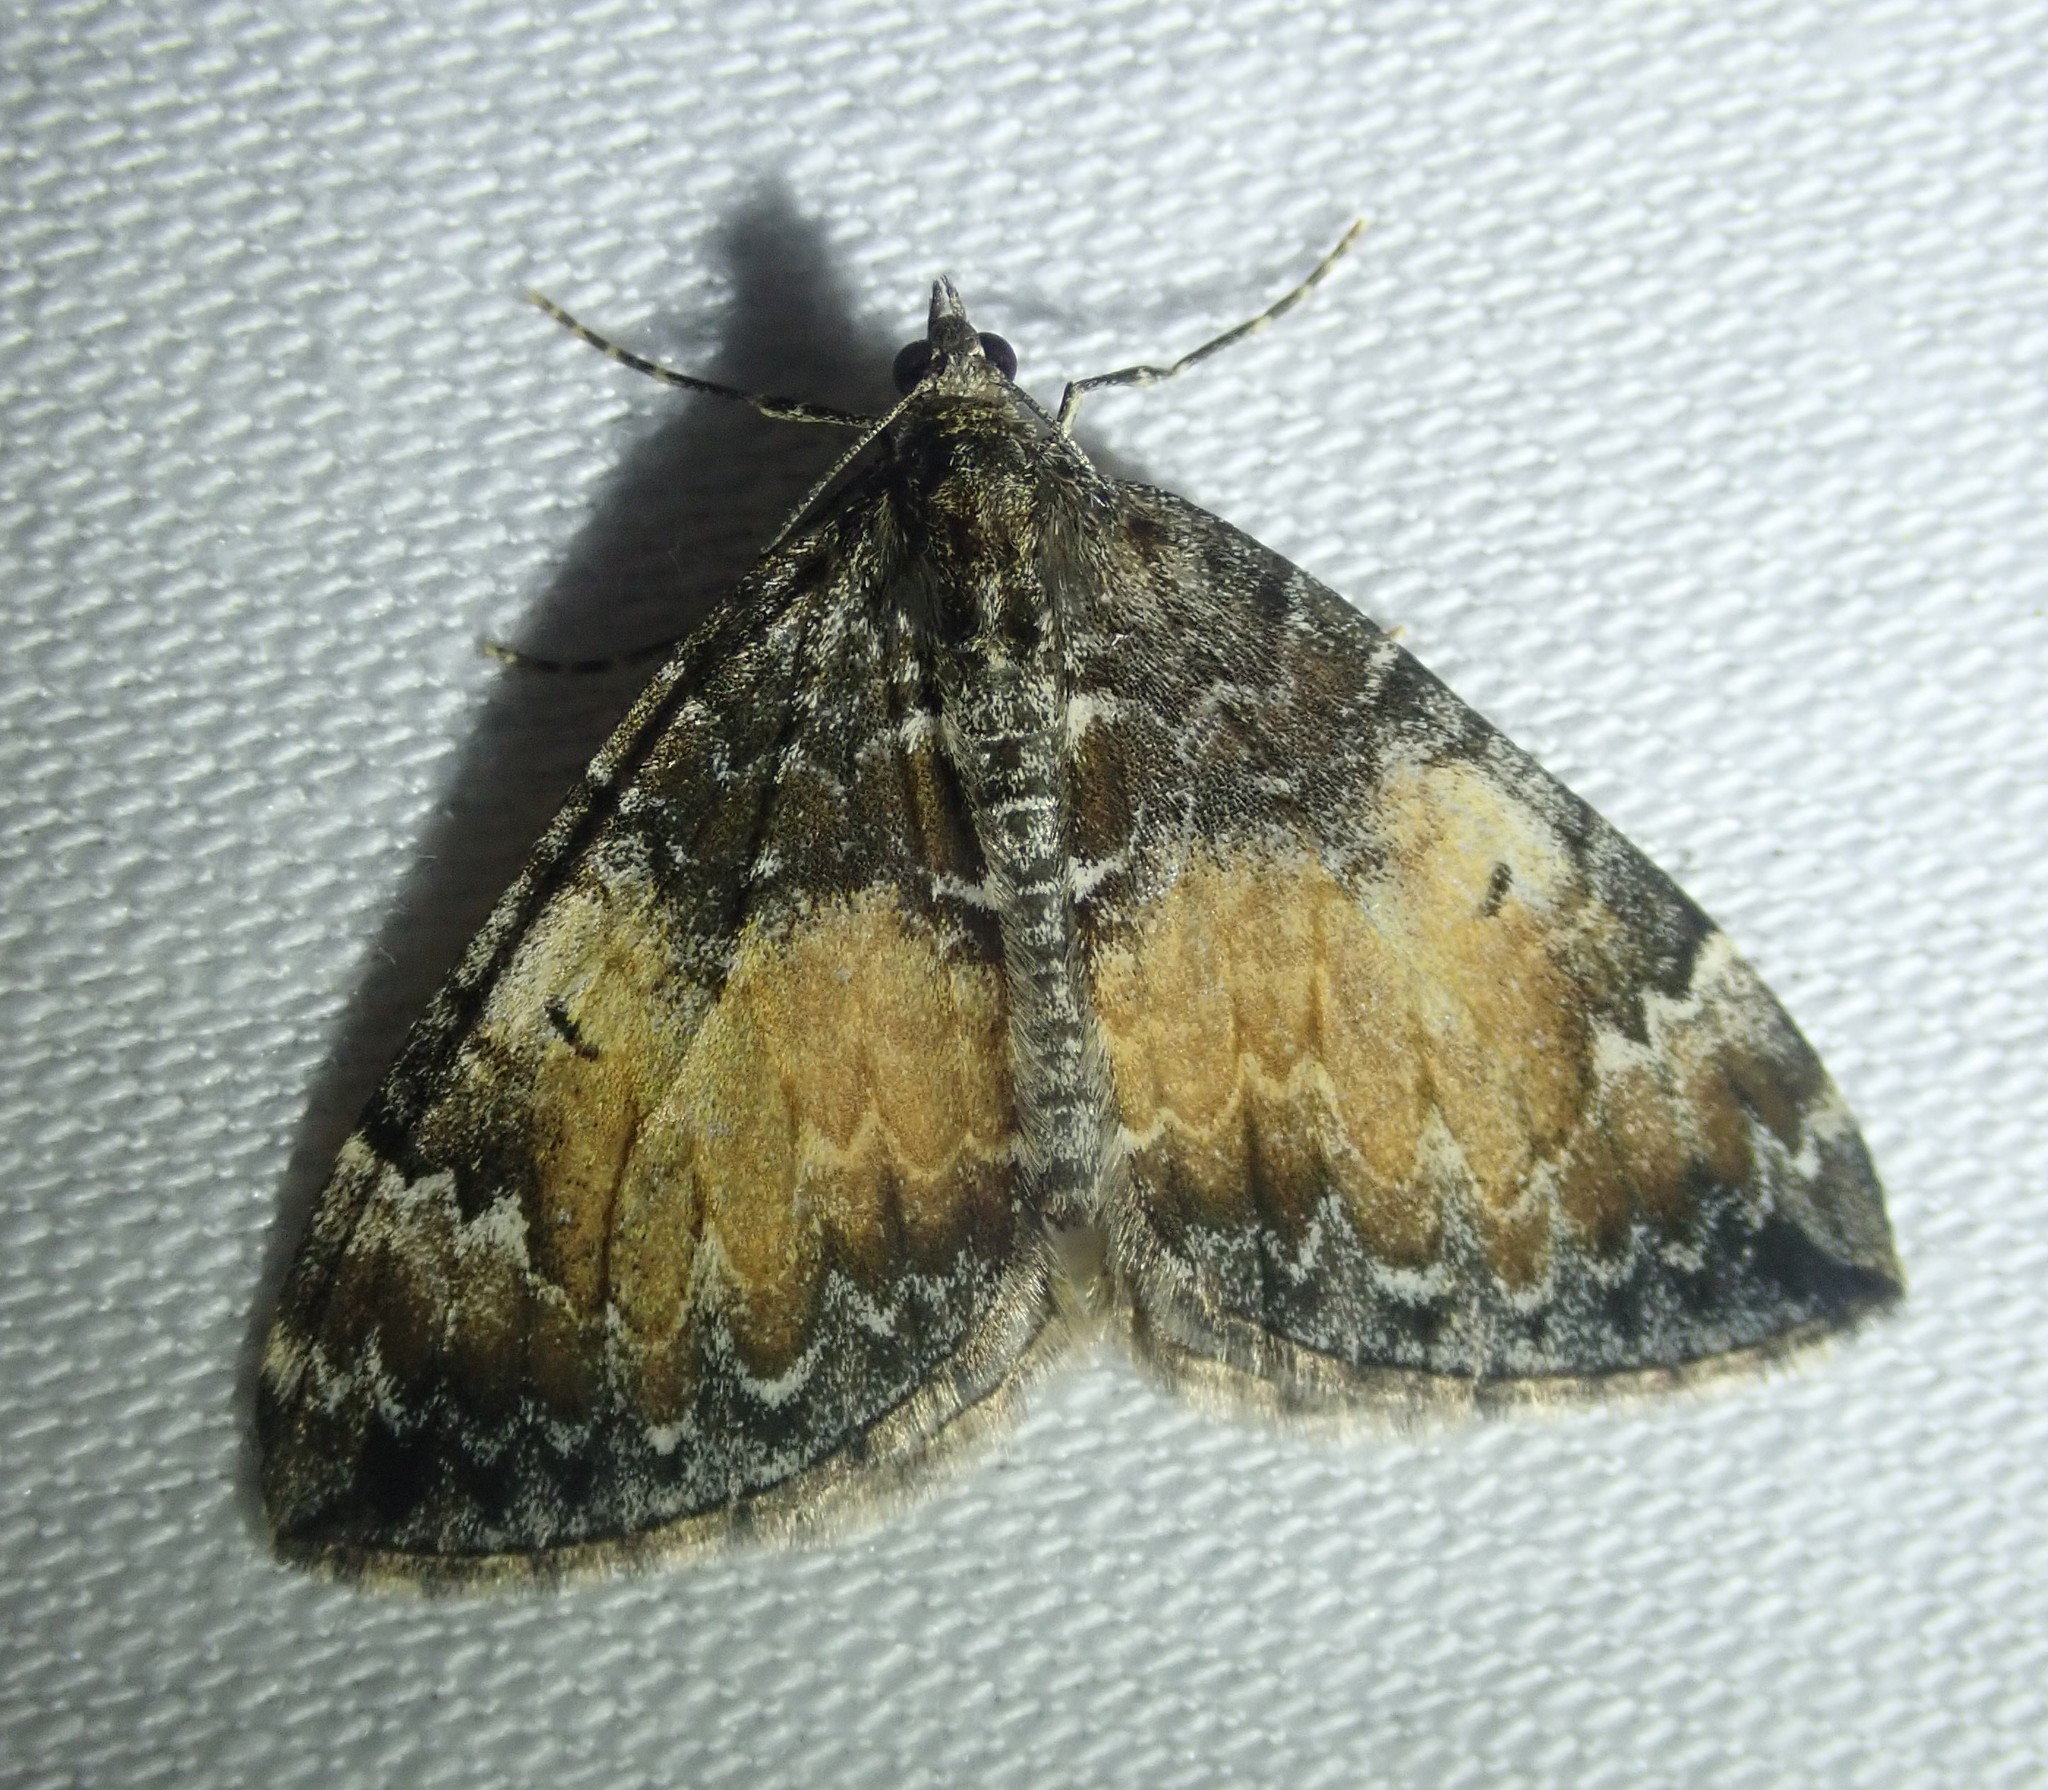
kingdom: Animalia
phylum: Arthropoda
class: Insecta
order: Lepidoptera
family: Geometridae
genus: Dysstroma
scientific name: Dysstroma truncata
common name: Common marbled carpet
